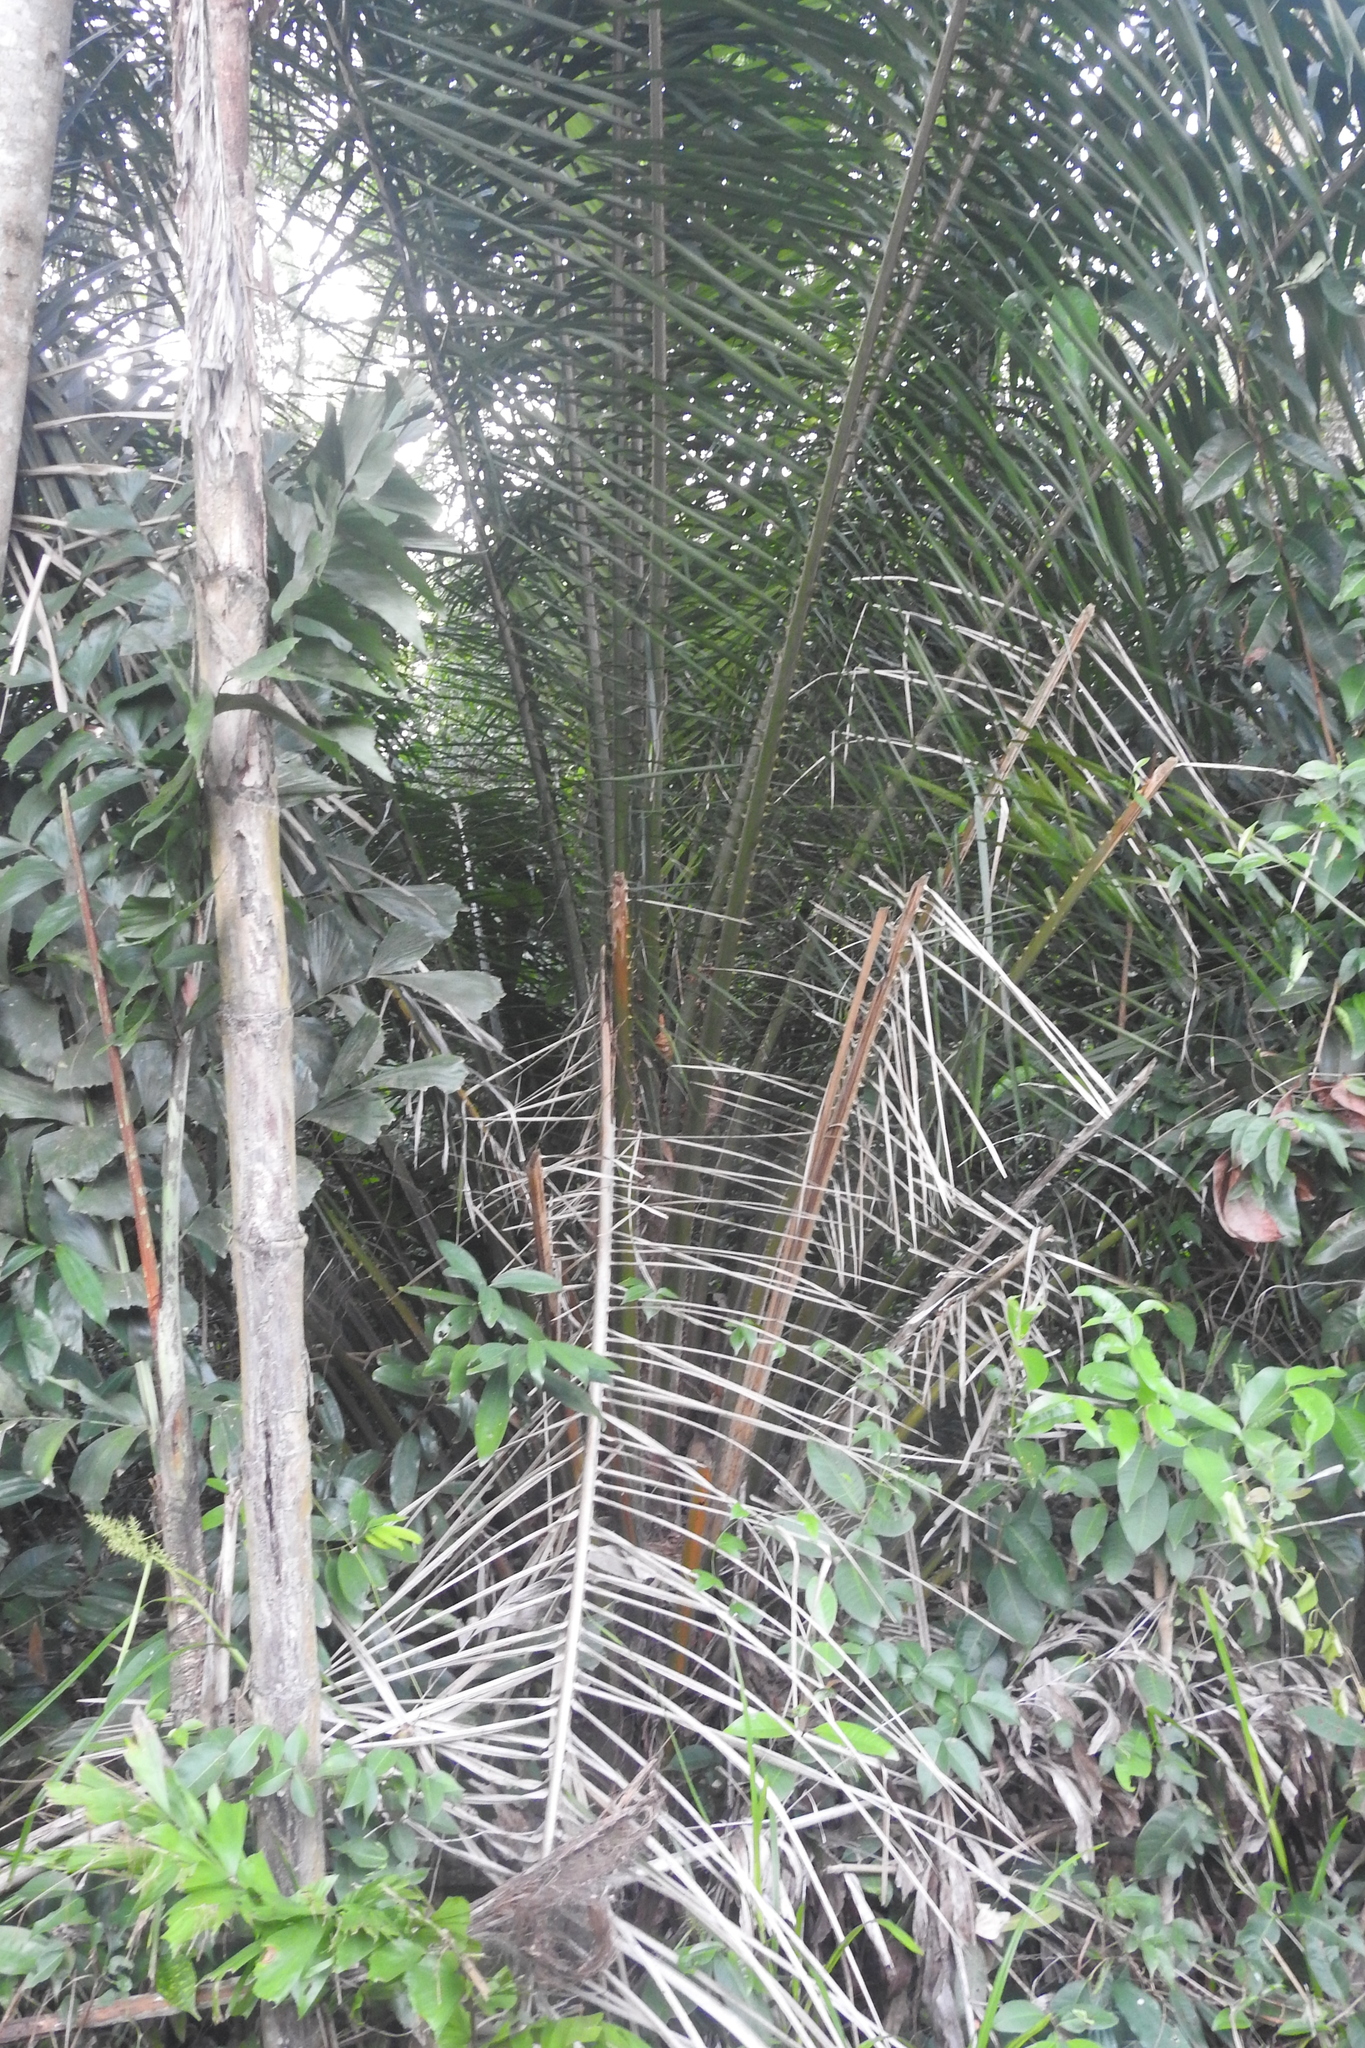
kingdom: Plantae
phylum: Tracheophyta
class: Liliopsida
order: Arecales
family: Arecaceae
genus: Elaeis
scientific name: Elaeis guineensis
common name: Oil palm
